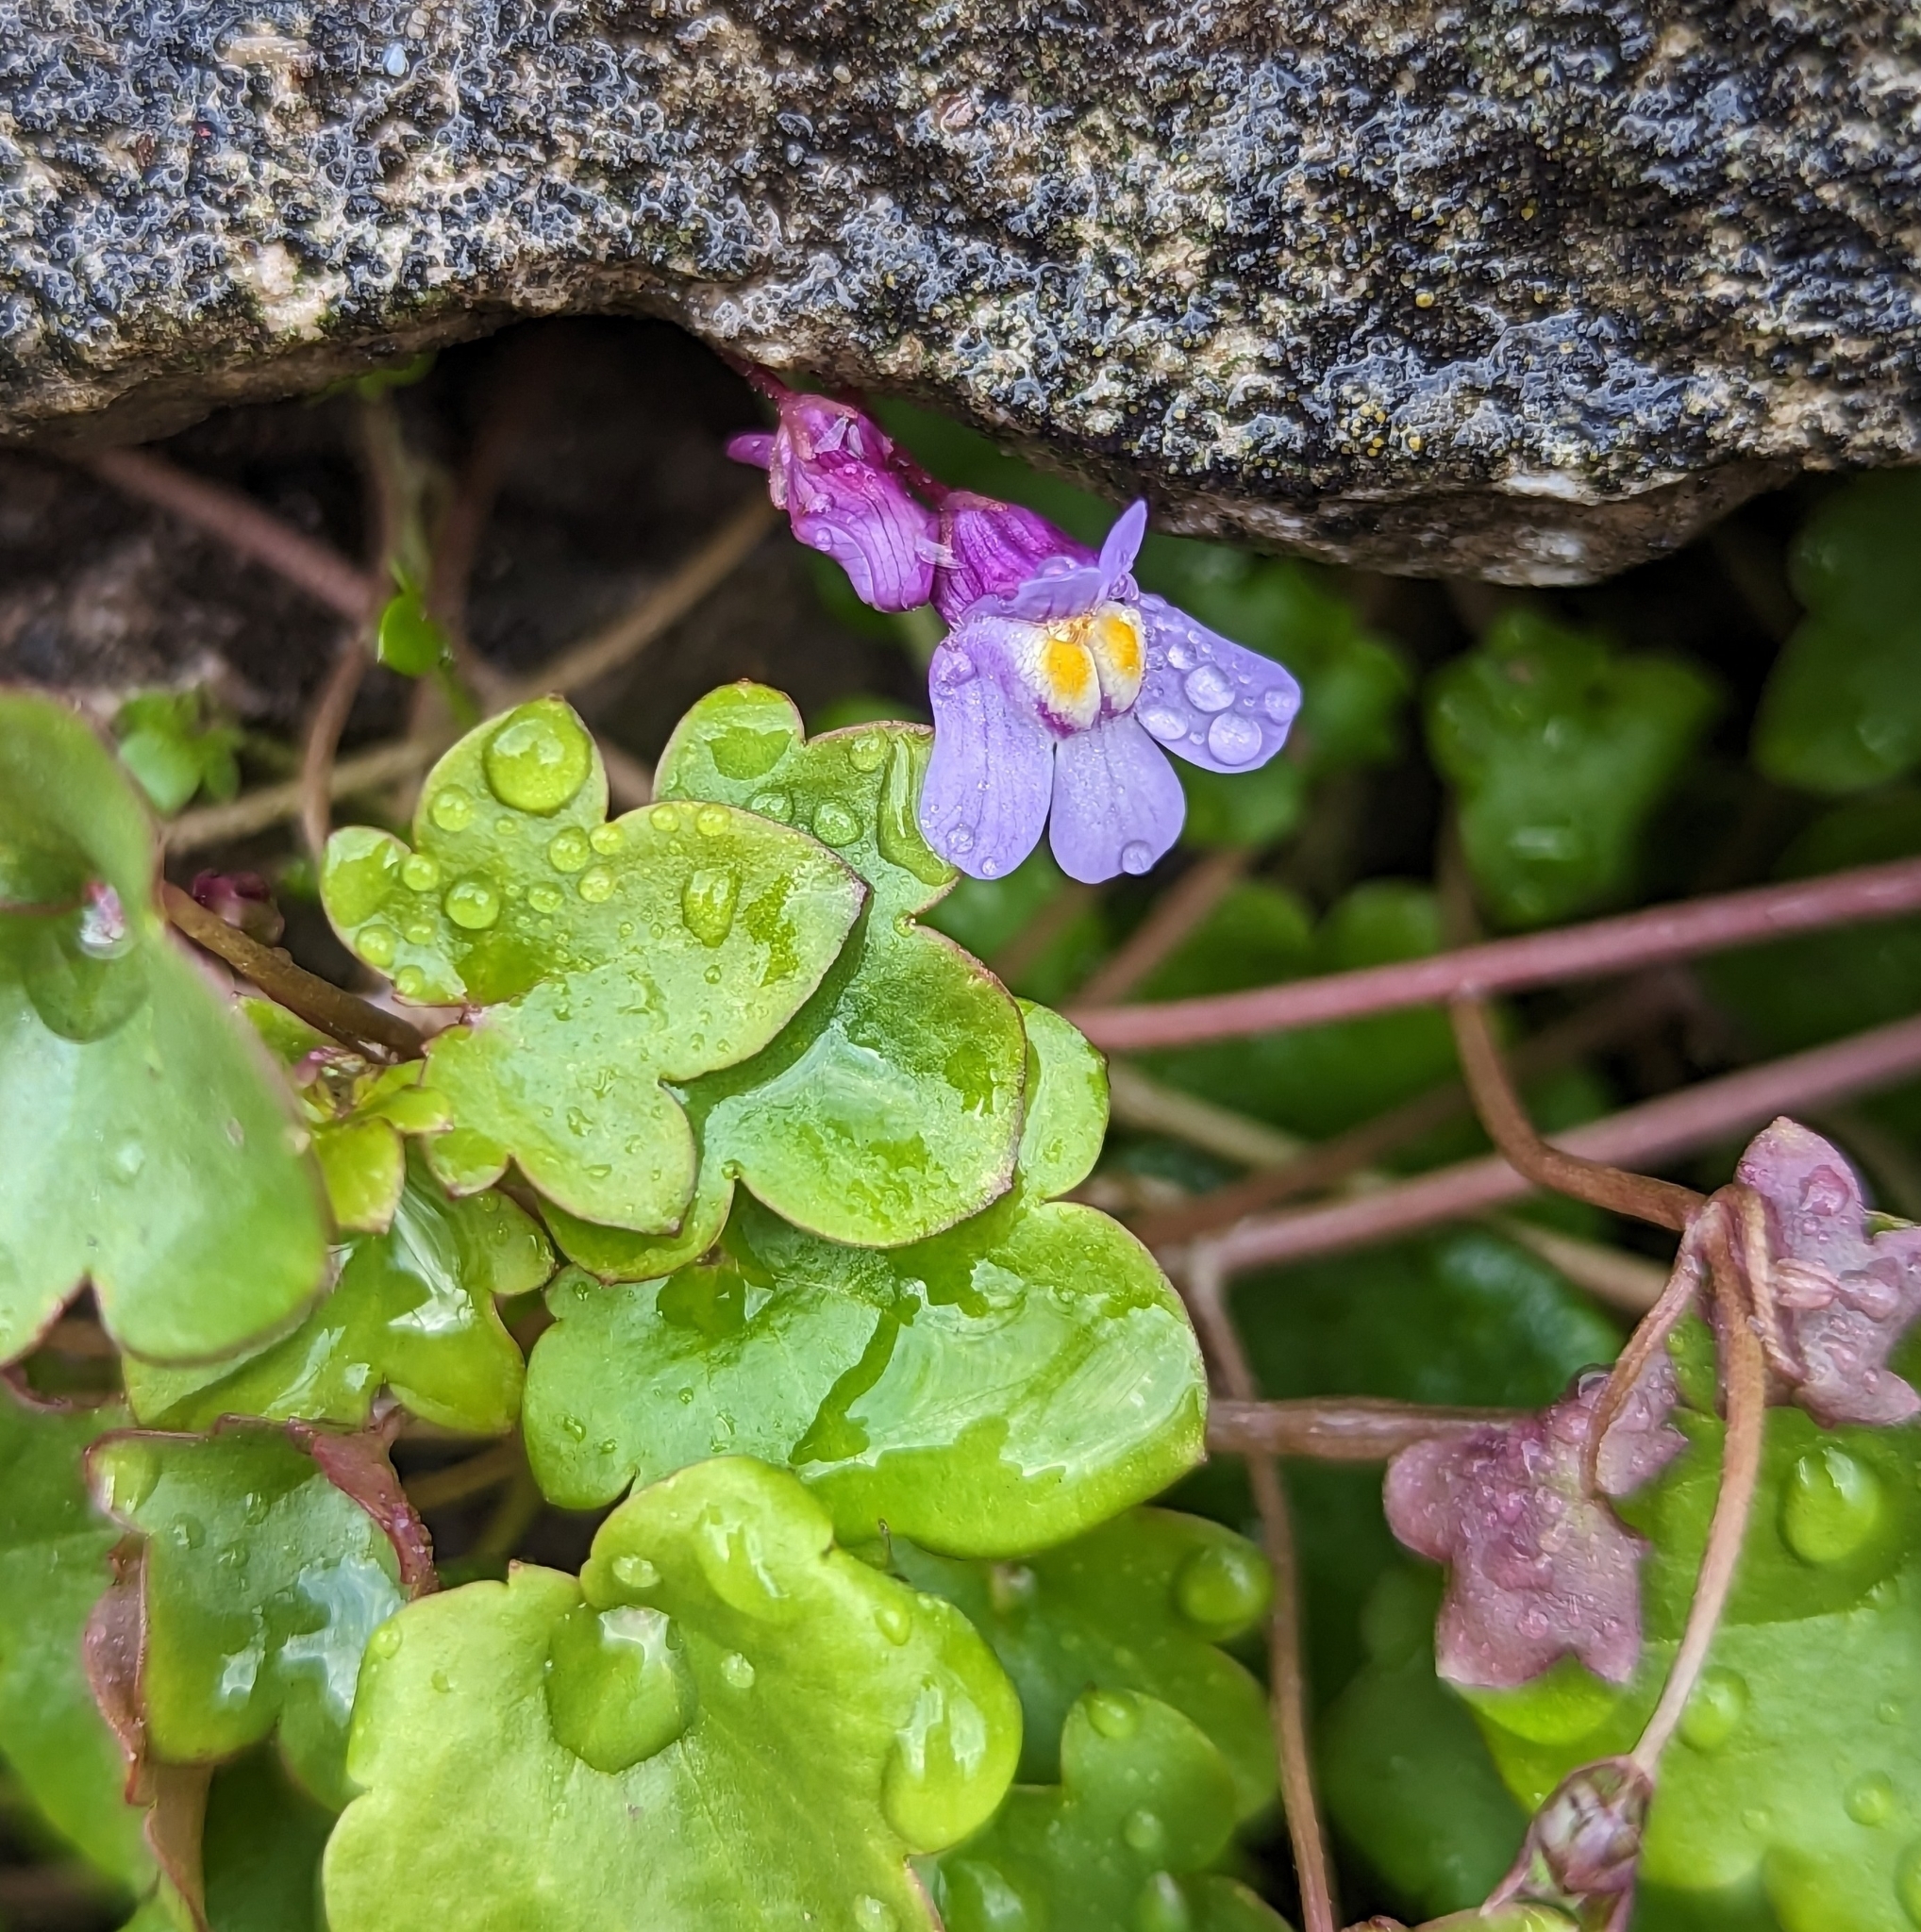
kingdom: Plantae
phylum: Tracheophyta
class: Magnoliopsida
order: Lamiales
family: Plantaginaceae
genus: Cymbalaria
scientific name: Cymbalaria muralis
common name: Ivy-leaved toadflax
